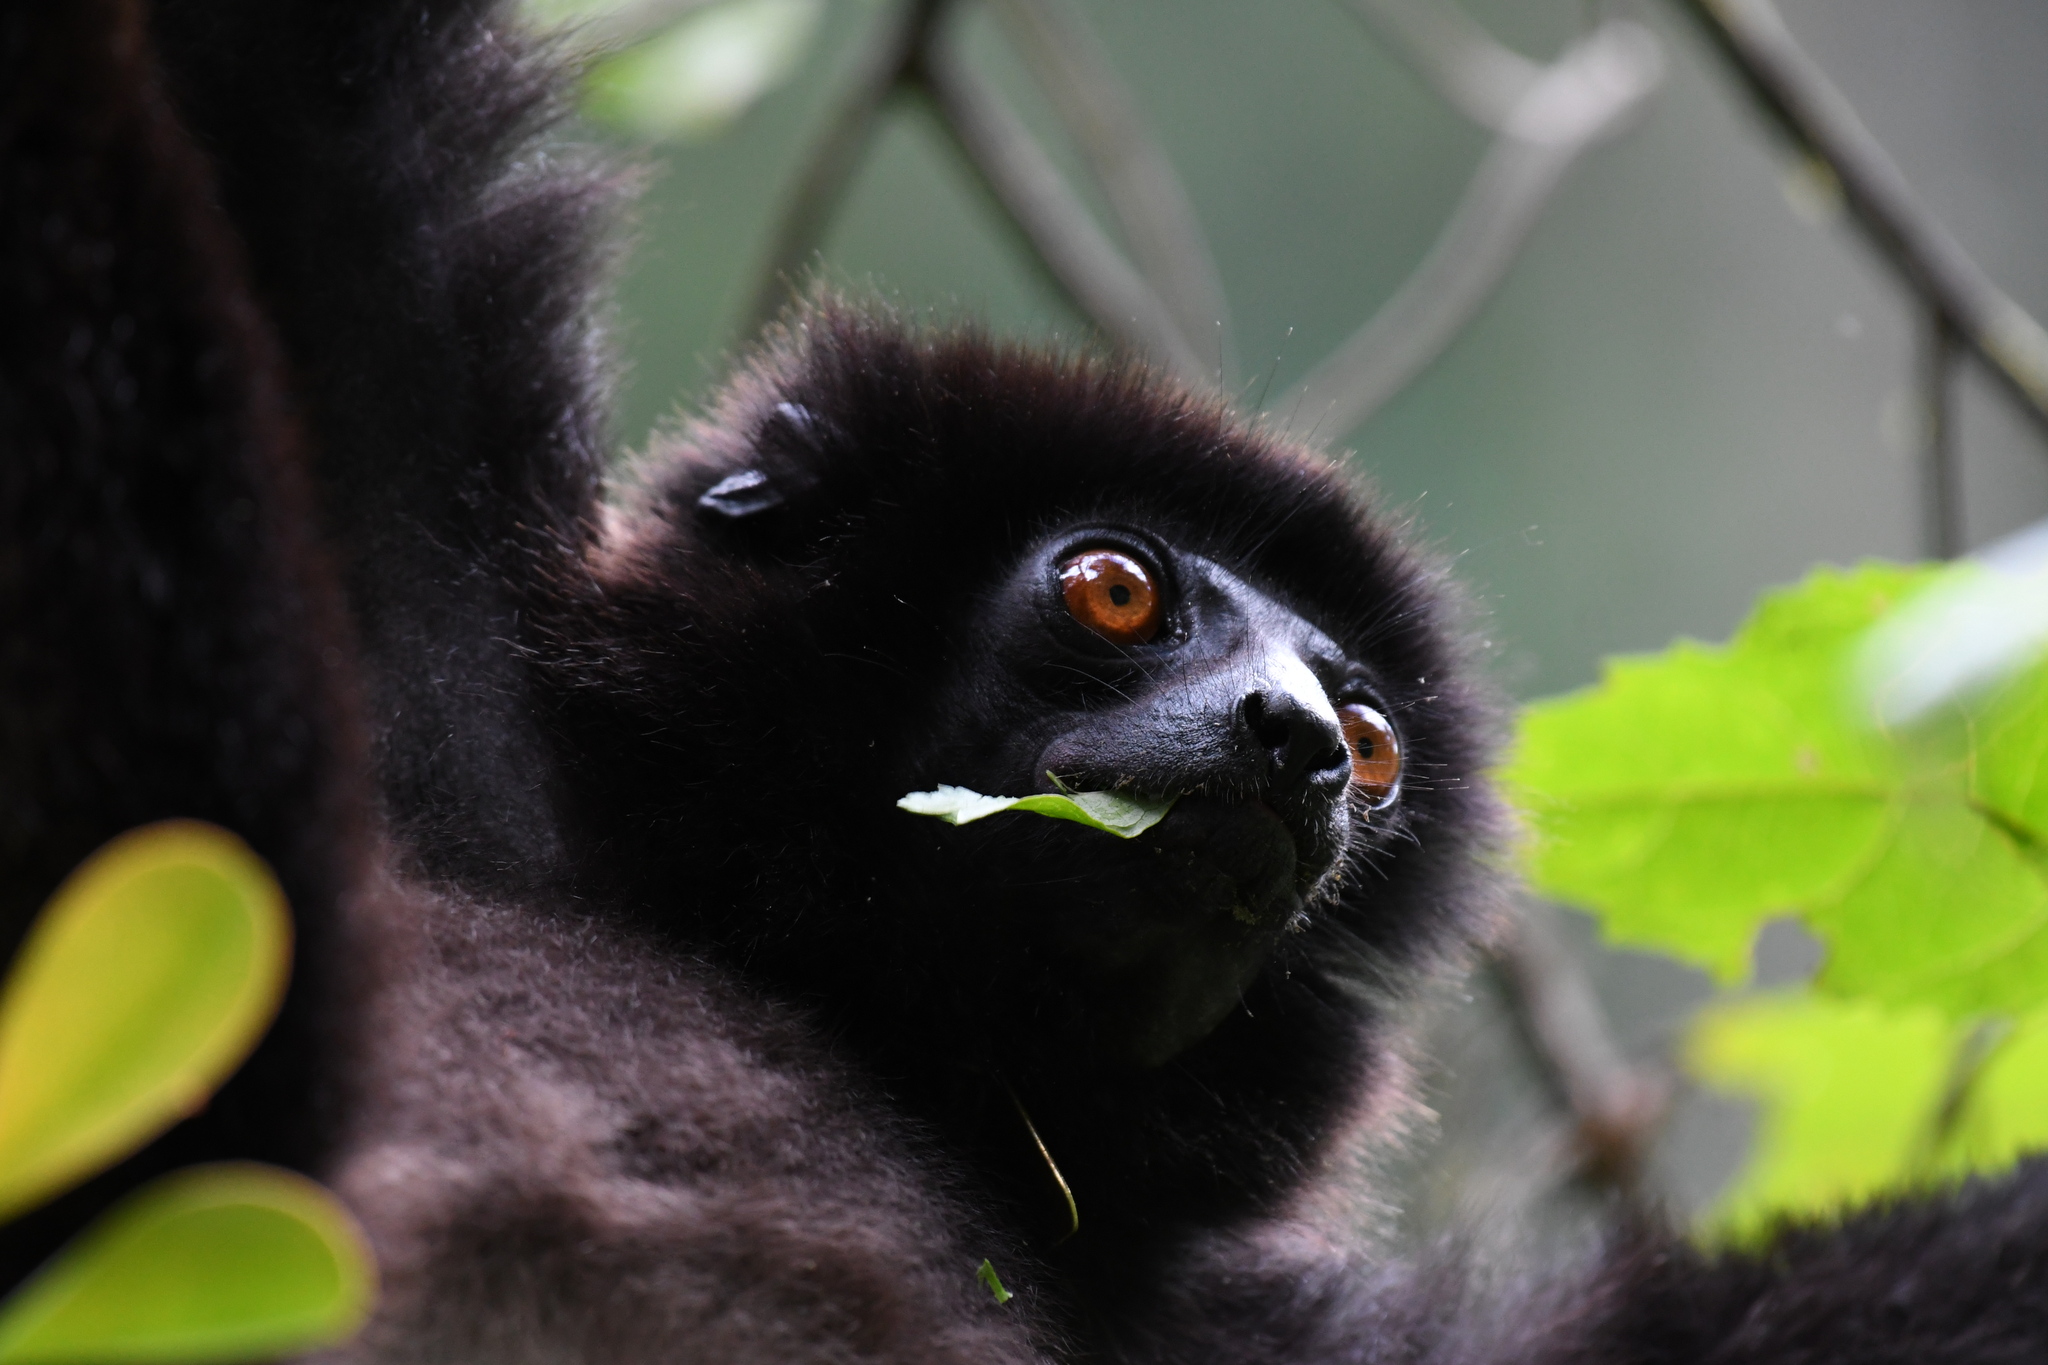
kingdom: Animalia
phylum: Chordata
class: Mammalia
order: Primates
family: Indriidae
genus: Propithecus
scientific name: Propithecus edwardsi
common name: Milne-edwards’s simpona
